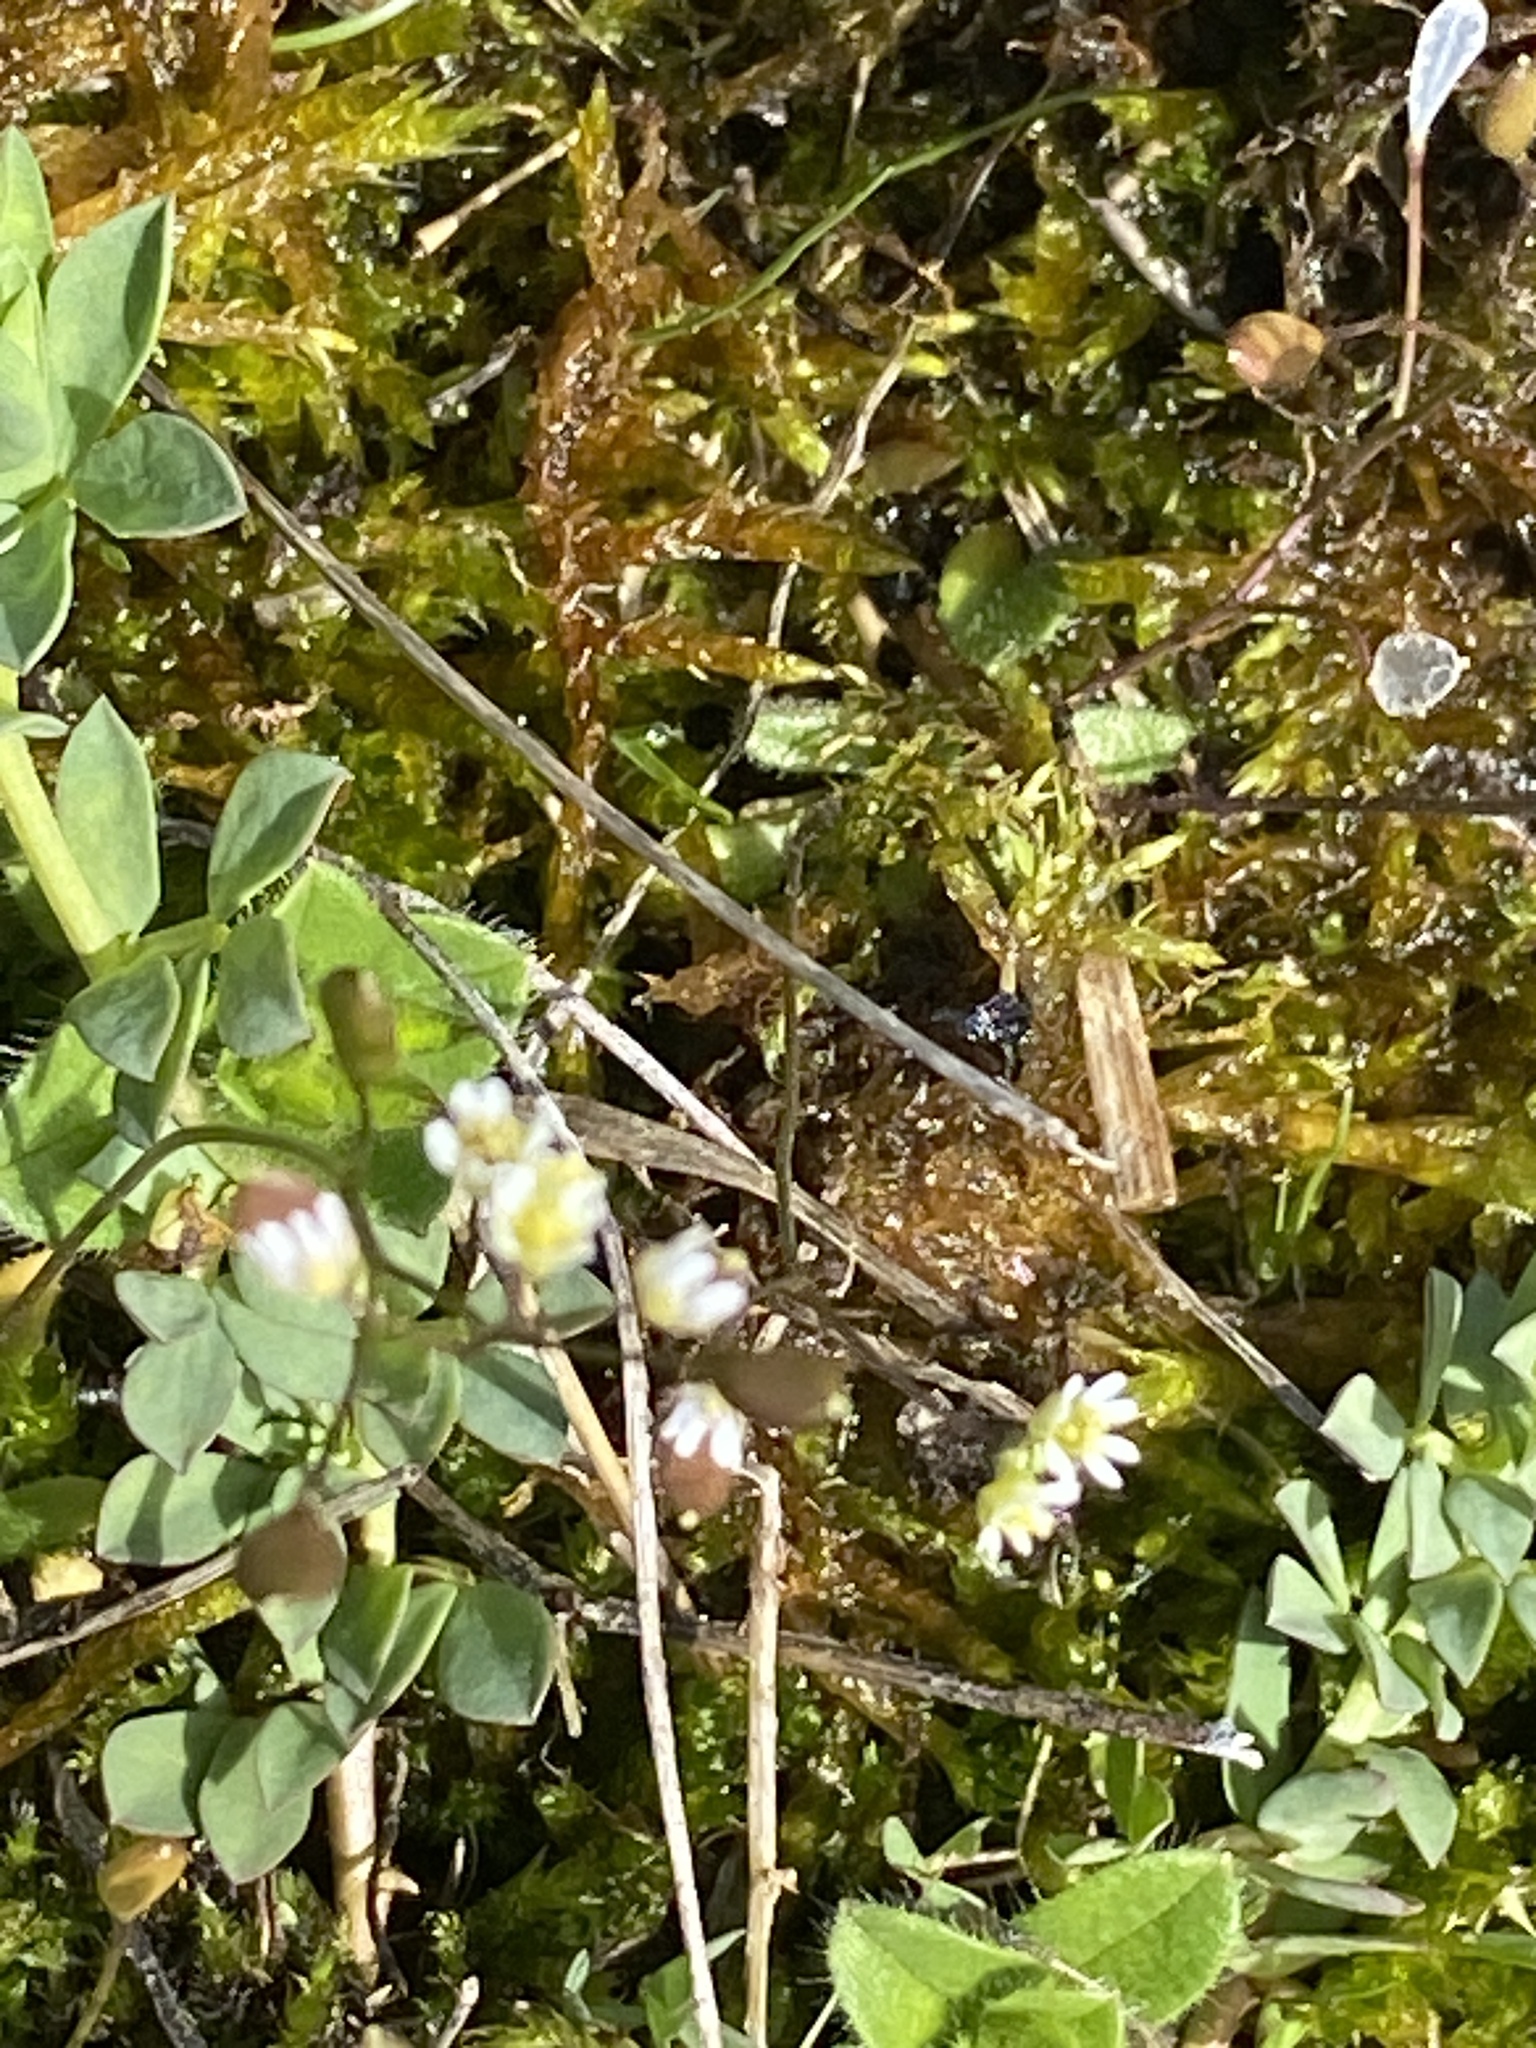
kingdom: Plantae
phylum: Tracheophyta
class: Magnoliopsida
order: Brassicales
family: Brassicaceae
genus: Draba
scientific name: Draba verna
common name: Spring draba
